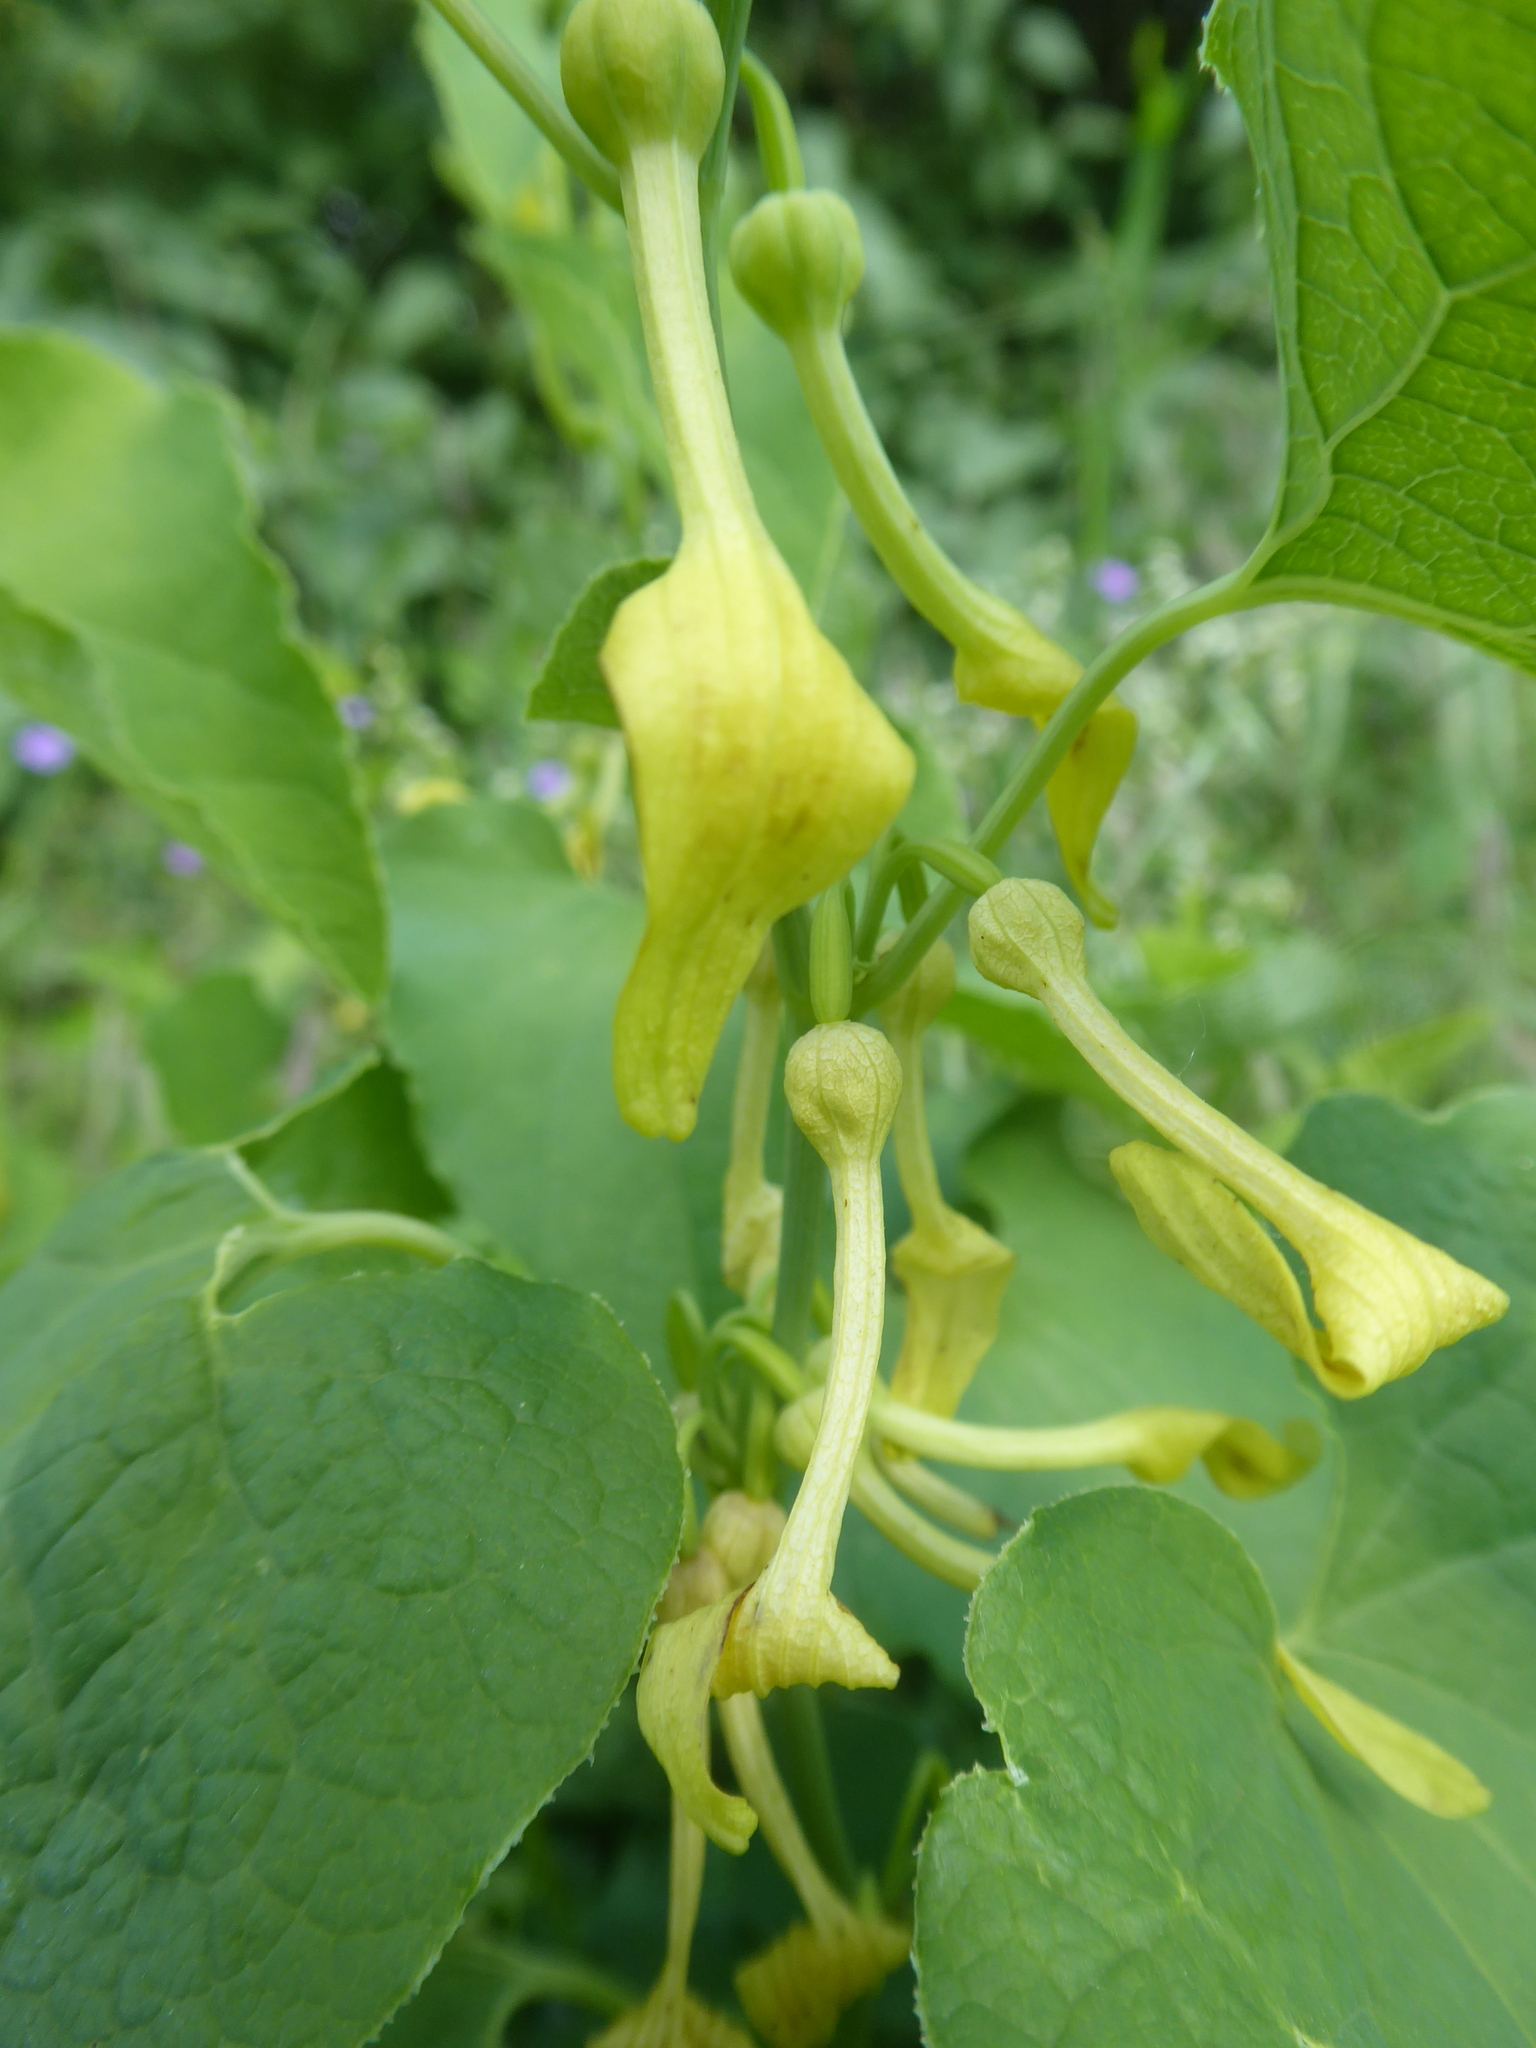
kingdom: Plantae
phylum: Tracheophyta
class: Magnoliopsida
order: Piperales
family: Aristolochiaceae
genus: Aristolochia
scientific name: Aristolochia clematitis
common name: Birthwort
